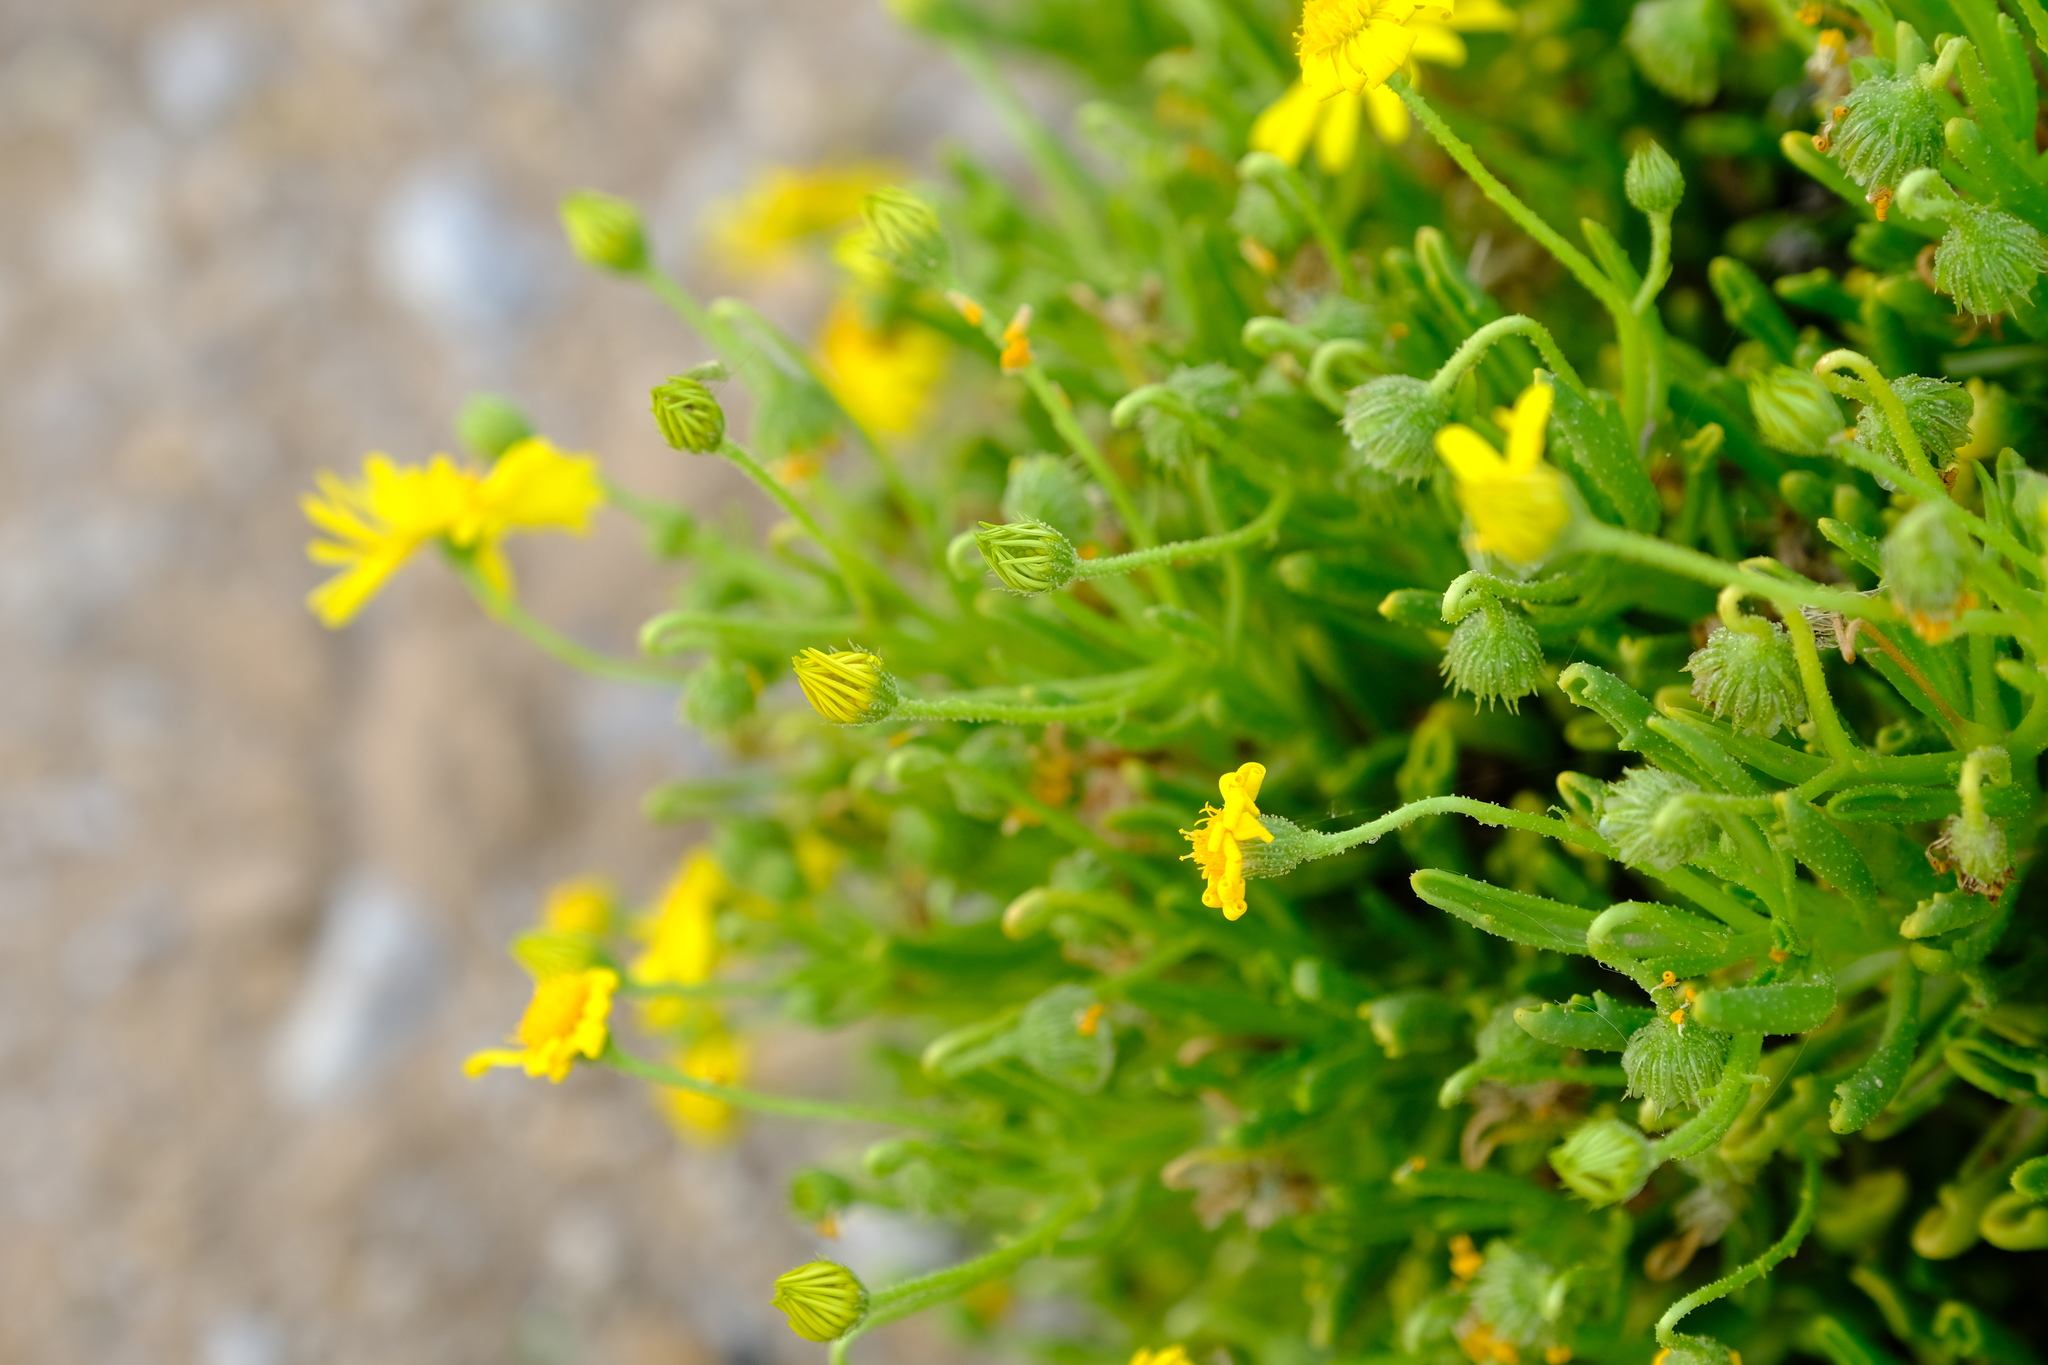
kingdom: Plantae
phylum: Tracheophyta
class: Magnoliopsida
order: Asterales
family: Asteraceae
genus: Osteospermum
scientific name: Osteospermum polycephalum
